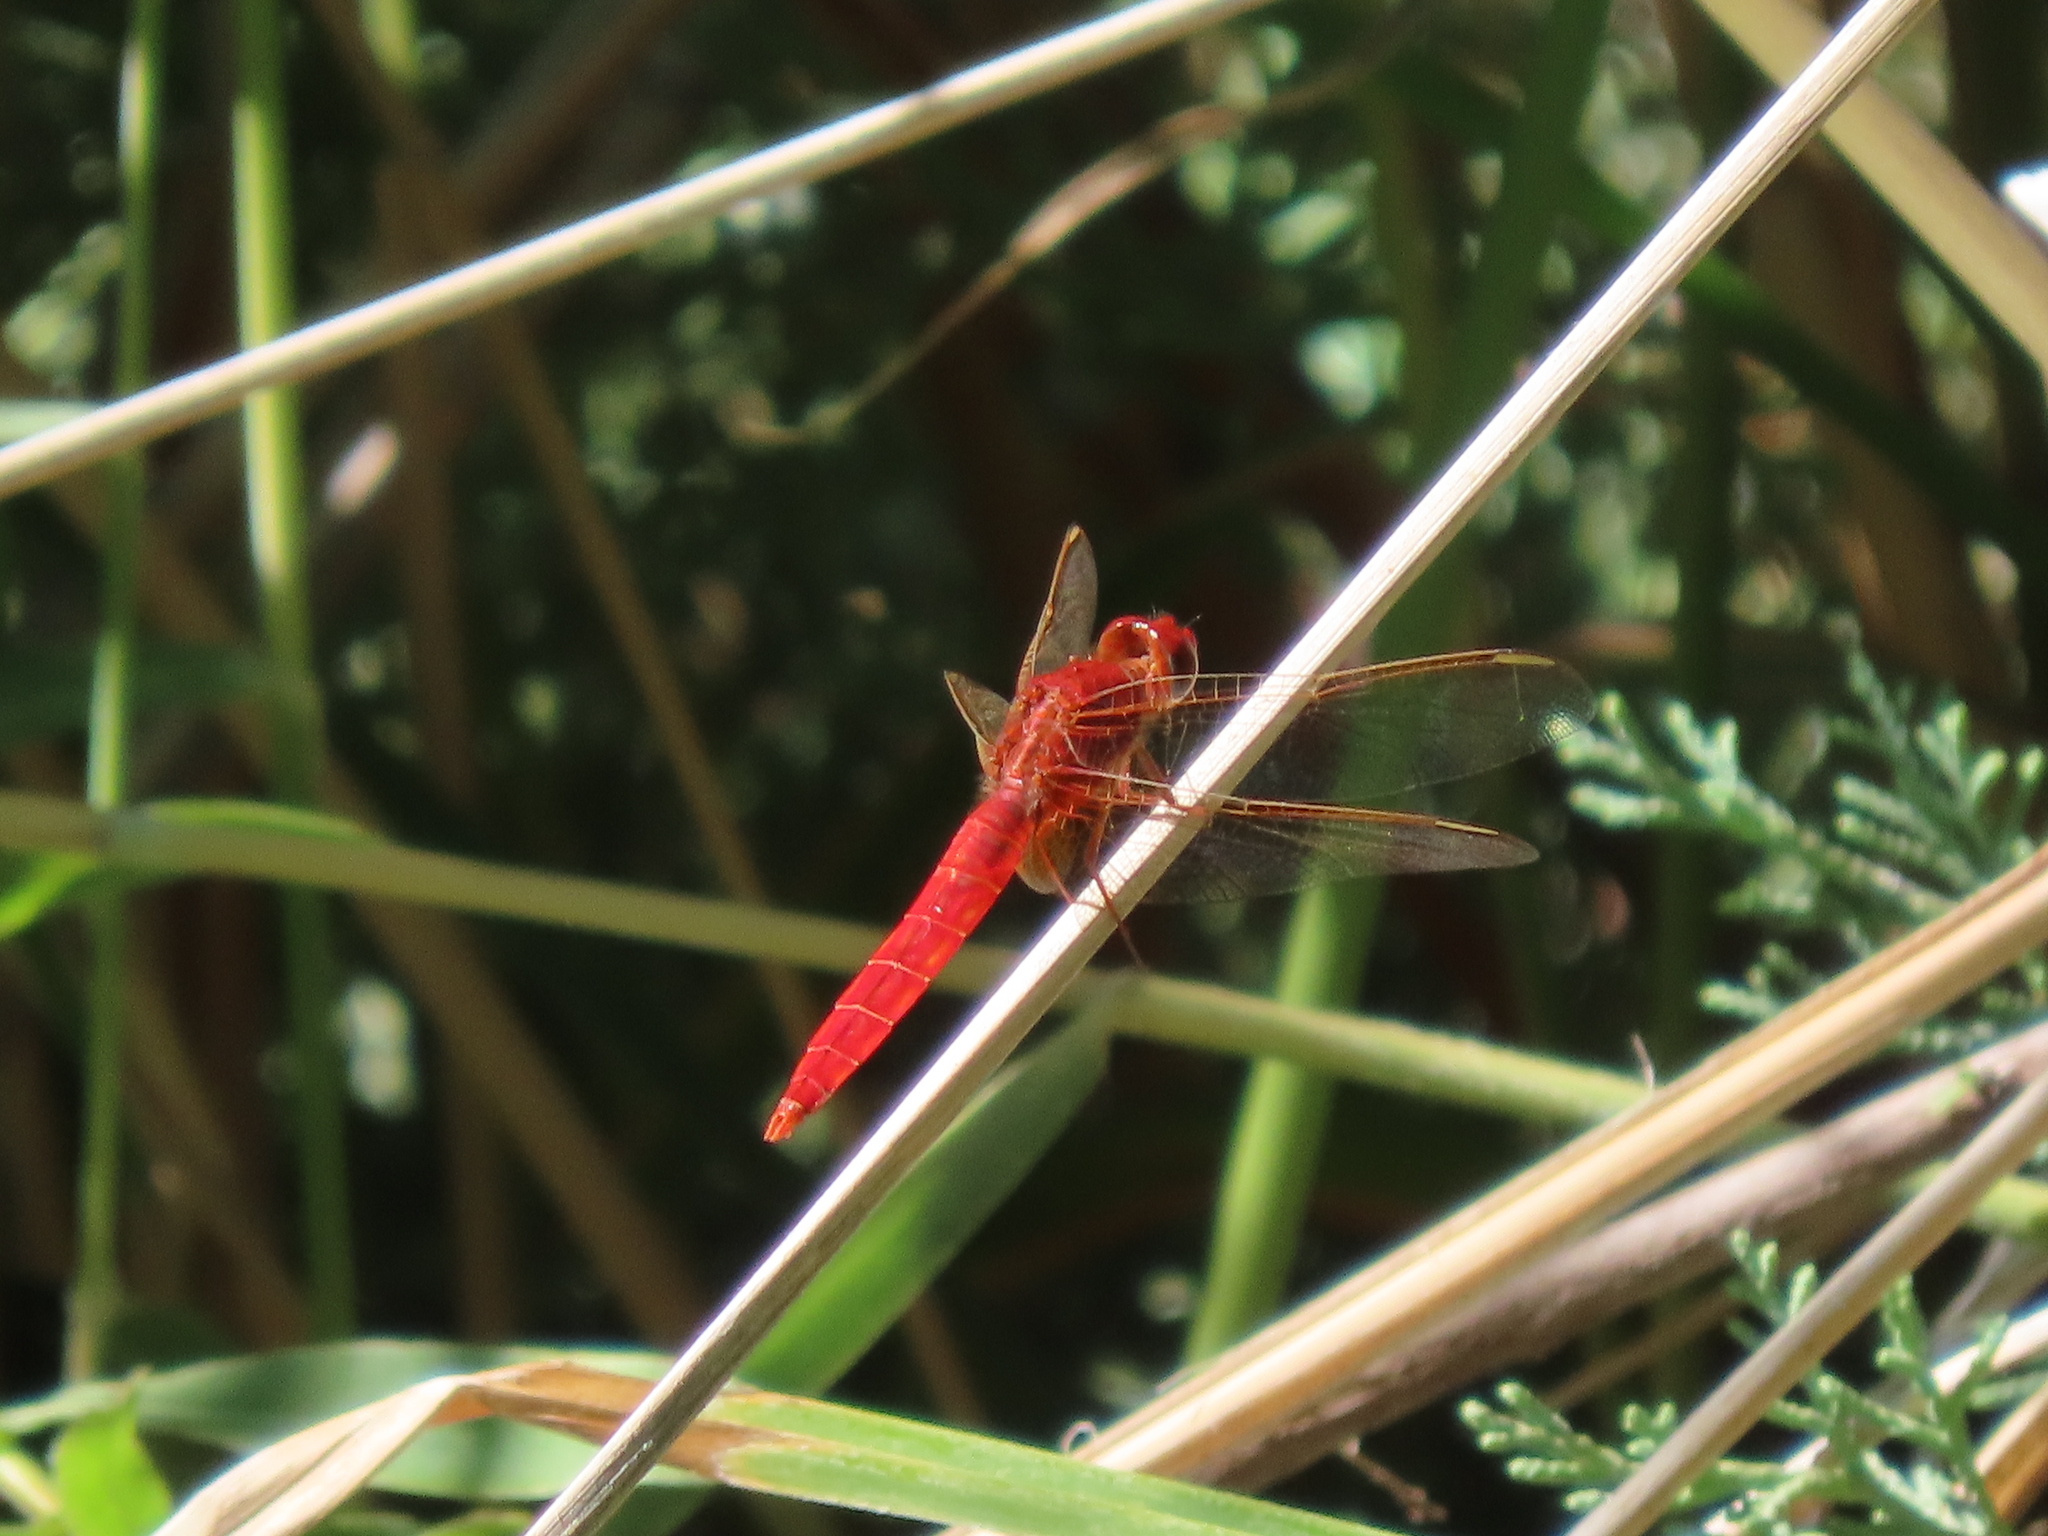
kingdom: Animalia
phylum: Arthropoda
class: Insecta
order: Odonata
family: Libellulidae
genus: Crocothemis
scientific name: Crocothemis erythraea
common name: Scarlet dragonfly
